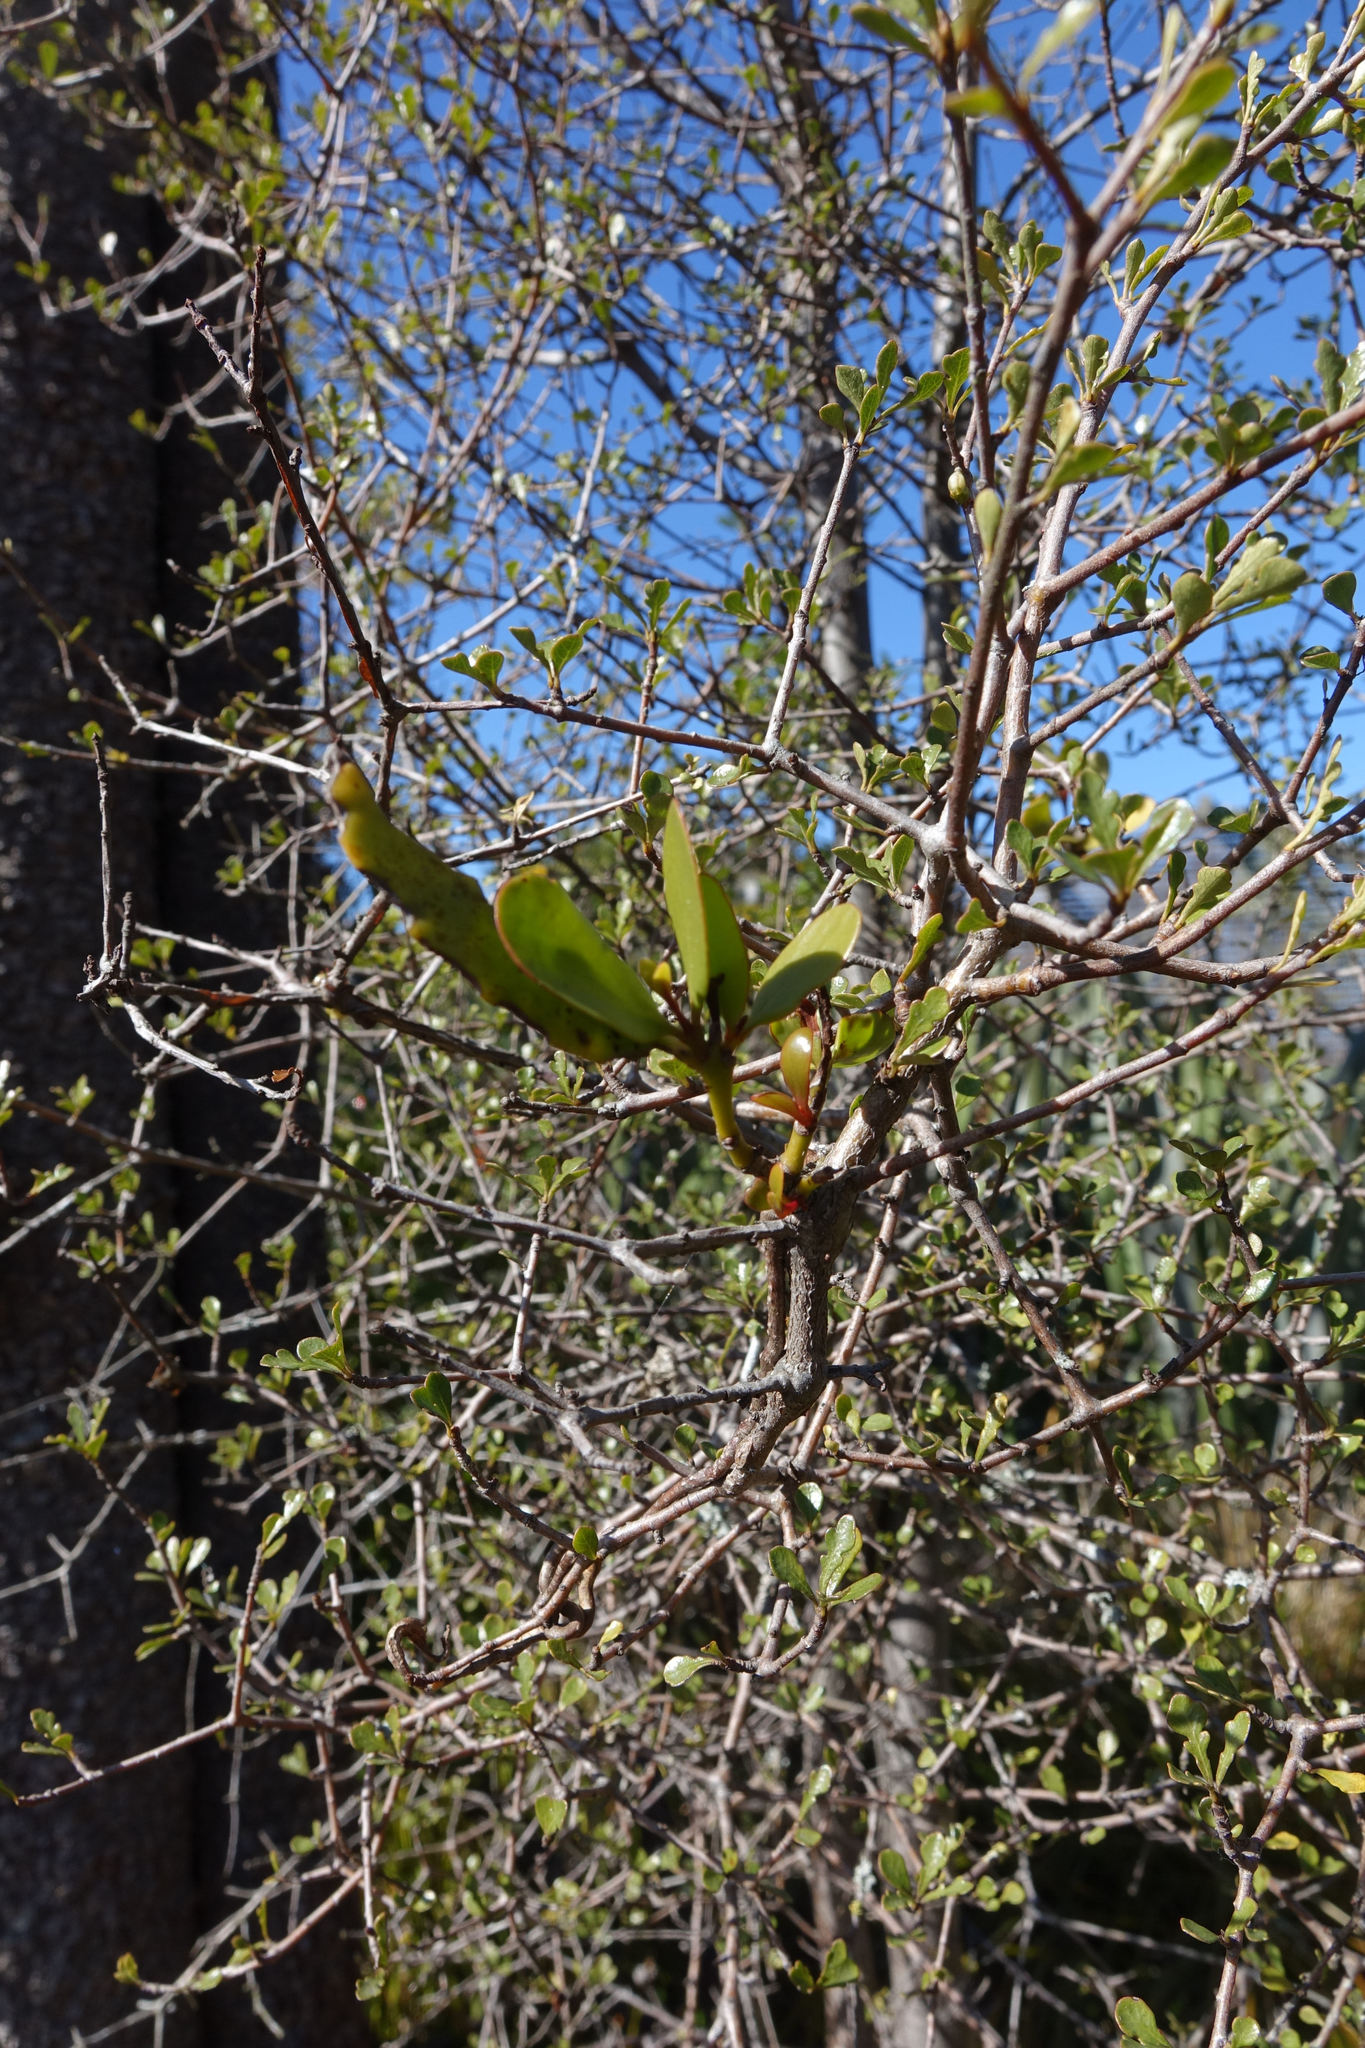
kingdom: Plantae
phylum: Tracheophyta
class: Magnoliopsida
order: Santalales
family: Loranthaceae
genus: Ileostylus
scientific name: Ileostylus micranthus
